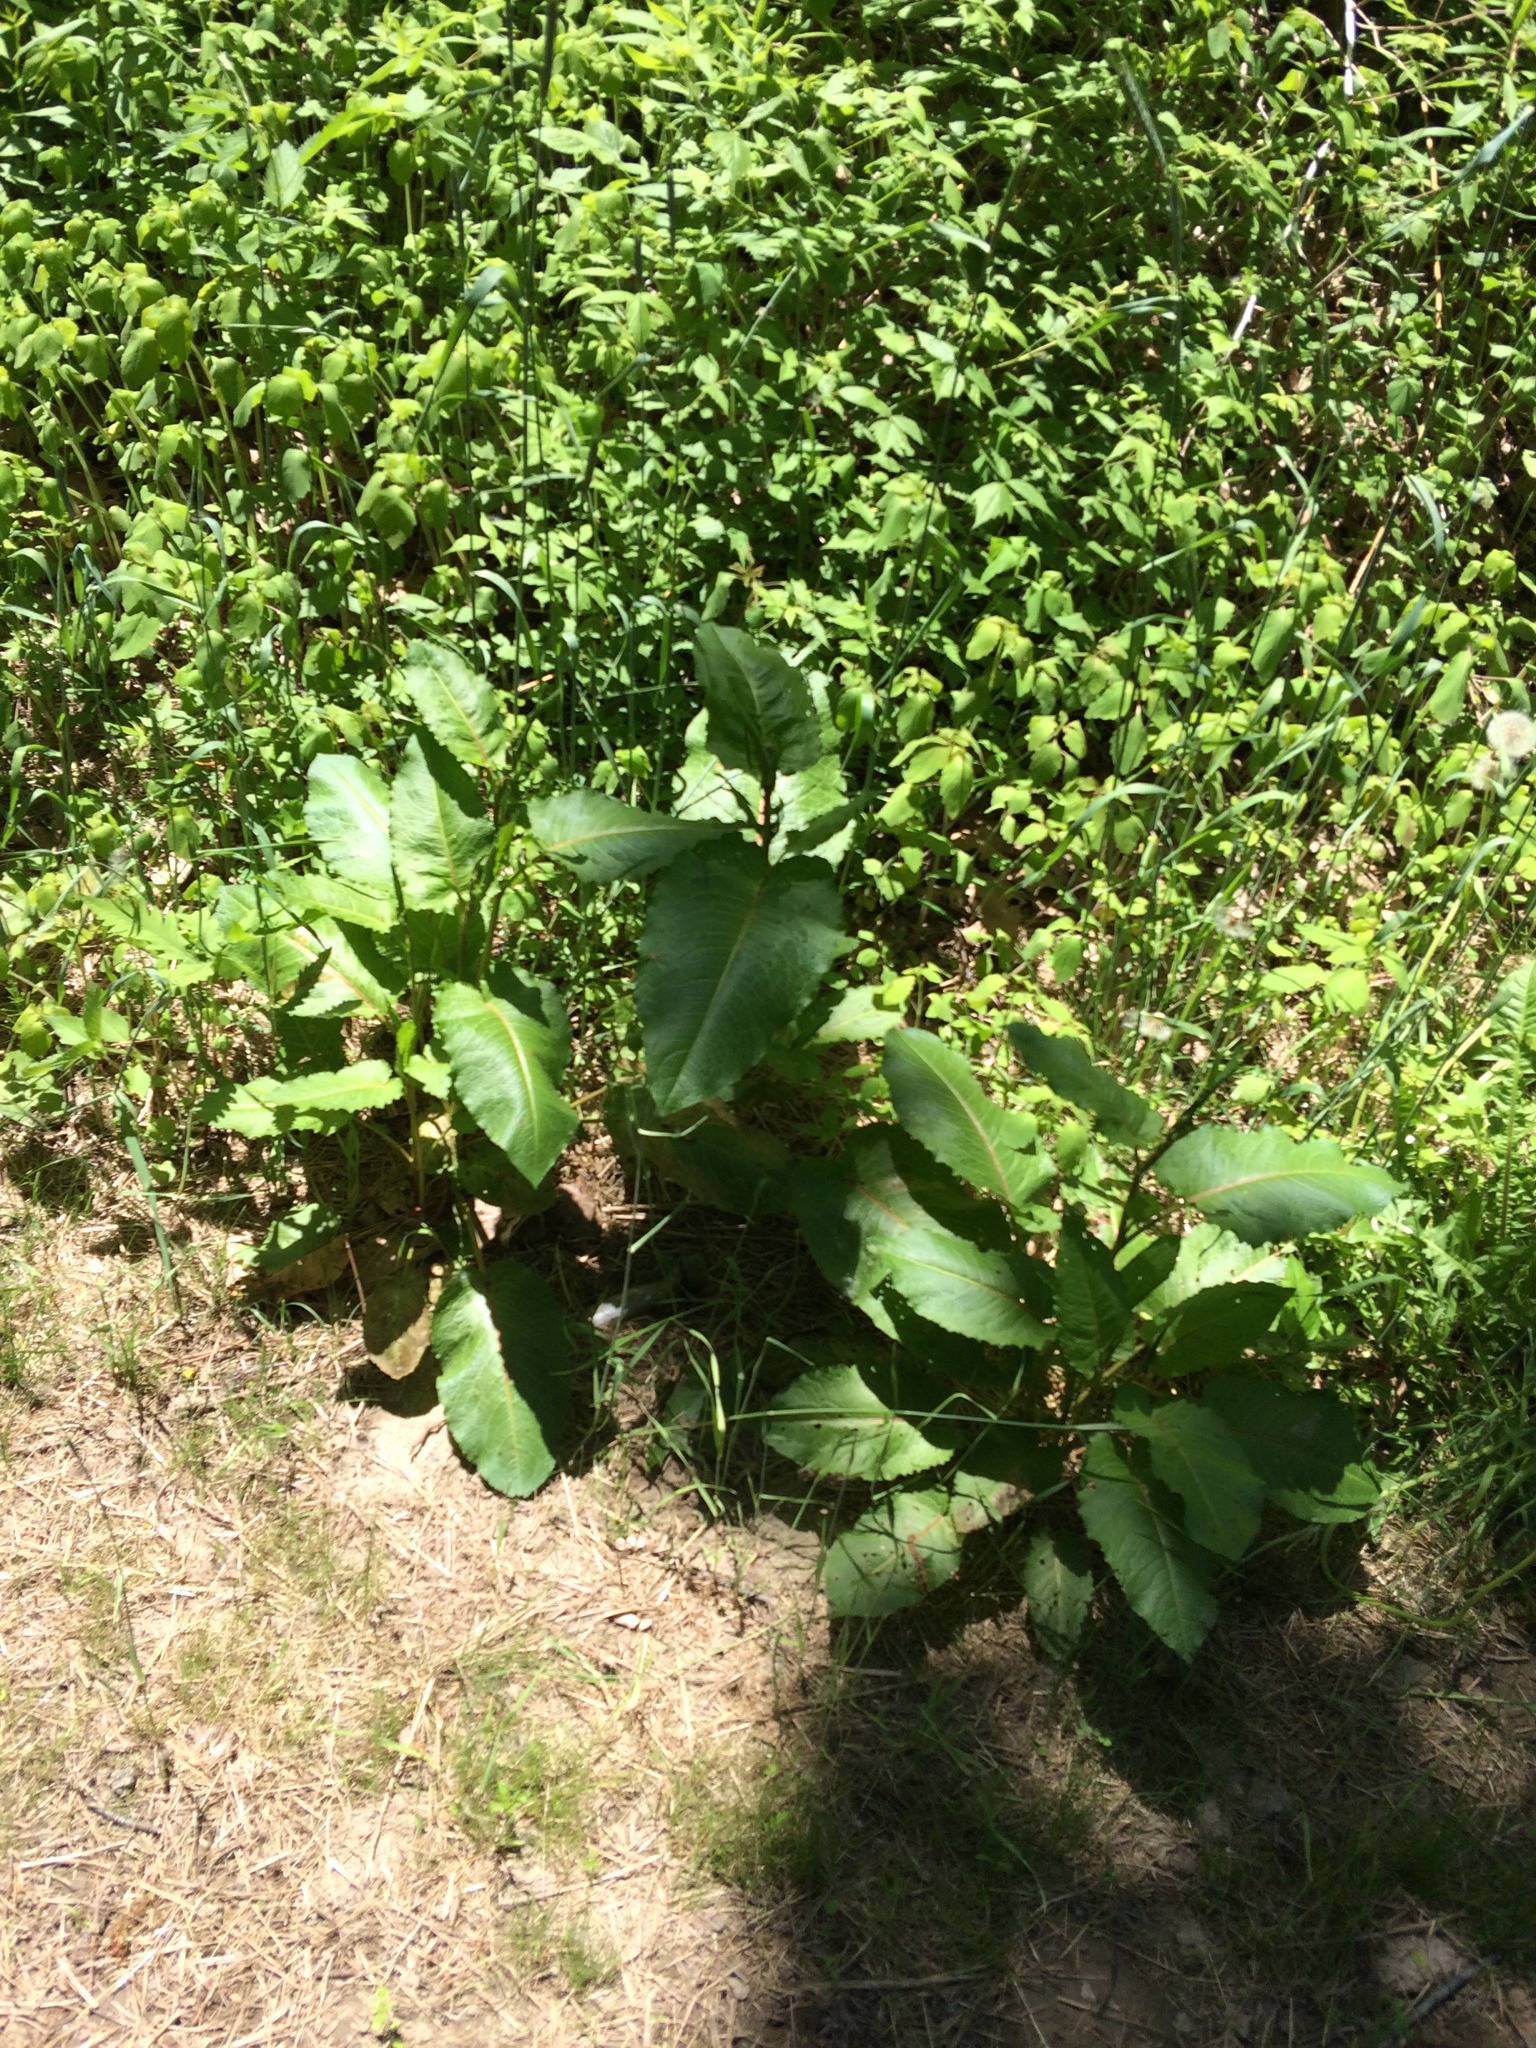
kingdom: Plantae
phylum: Tracheophyta
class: Magnoliopsida
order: Caryophyllales
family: Polygonaceae
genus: Rumex
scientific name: Rumex obtusifolius
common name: Bitter dock
